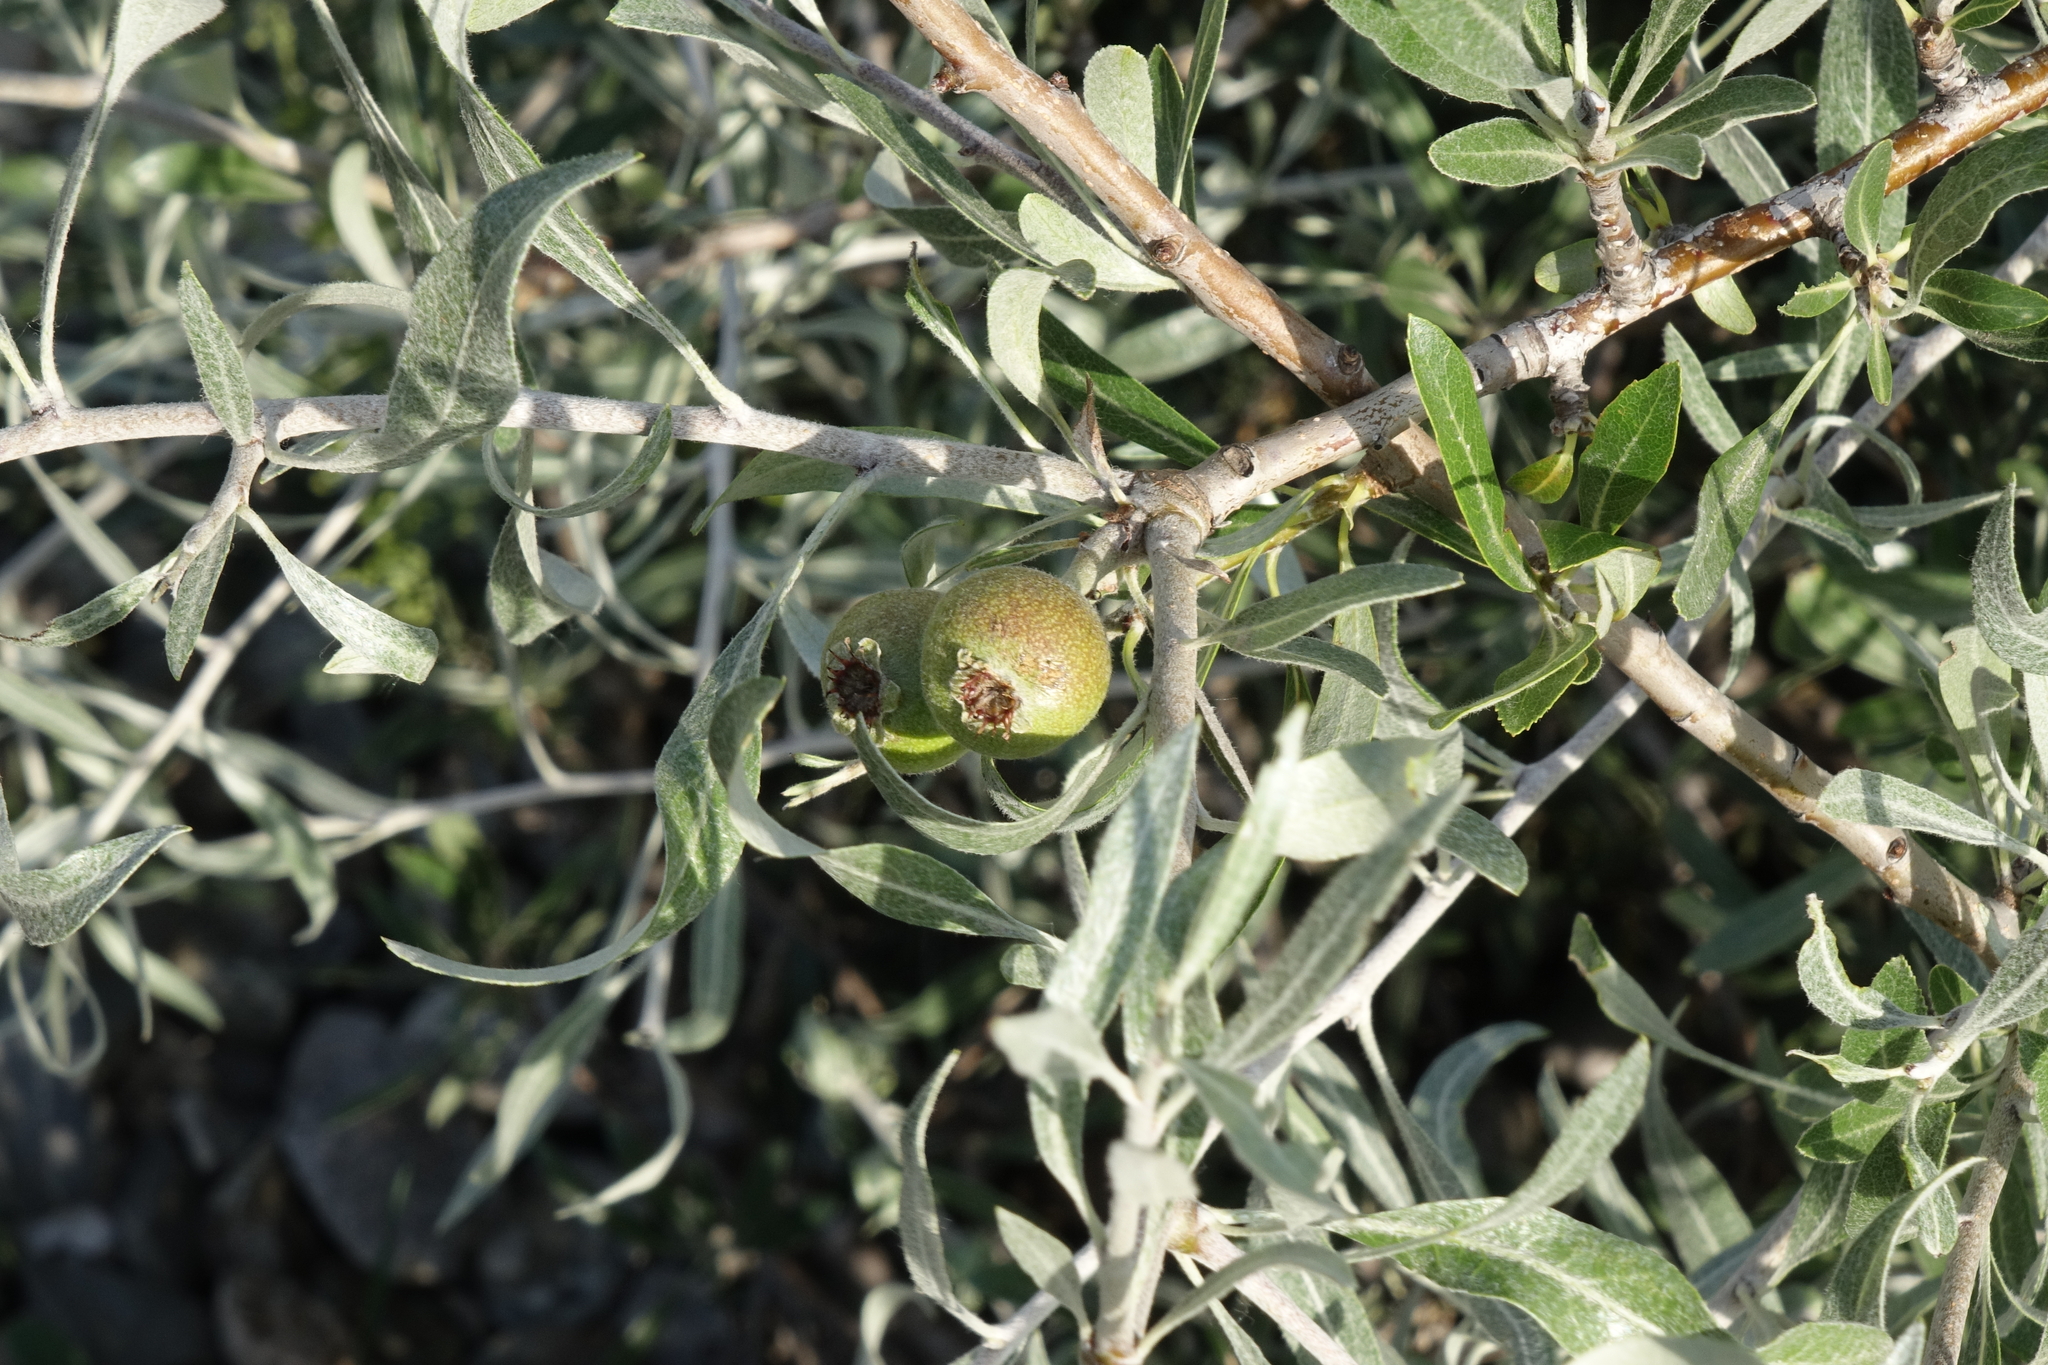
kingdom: Plantae
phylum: Tracheophyta
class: Magnoliopsida
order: Rosales
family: Rosaceae
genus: Pyrus
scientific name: Pyrus salicifolia
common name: Willow-leaved pear
